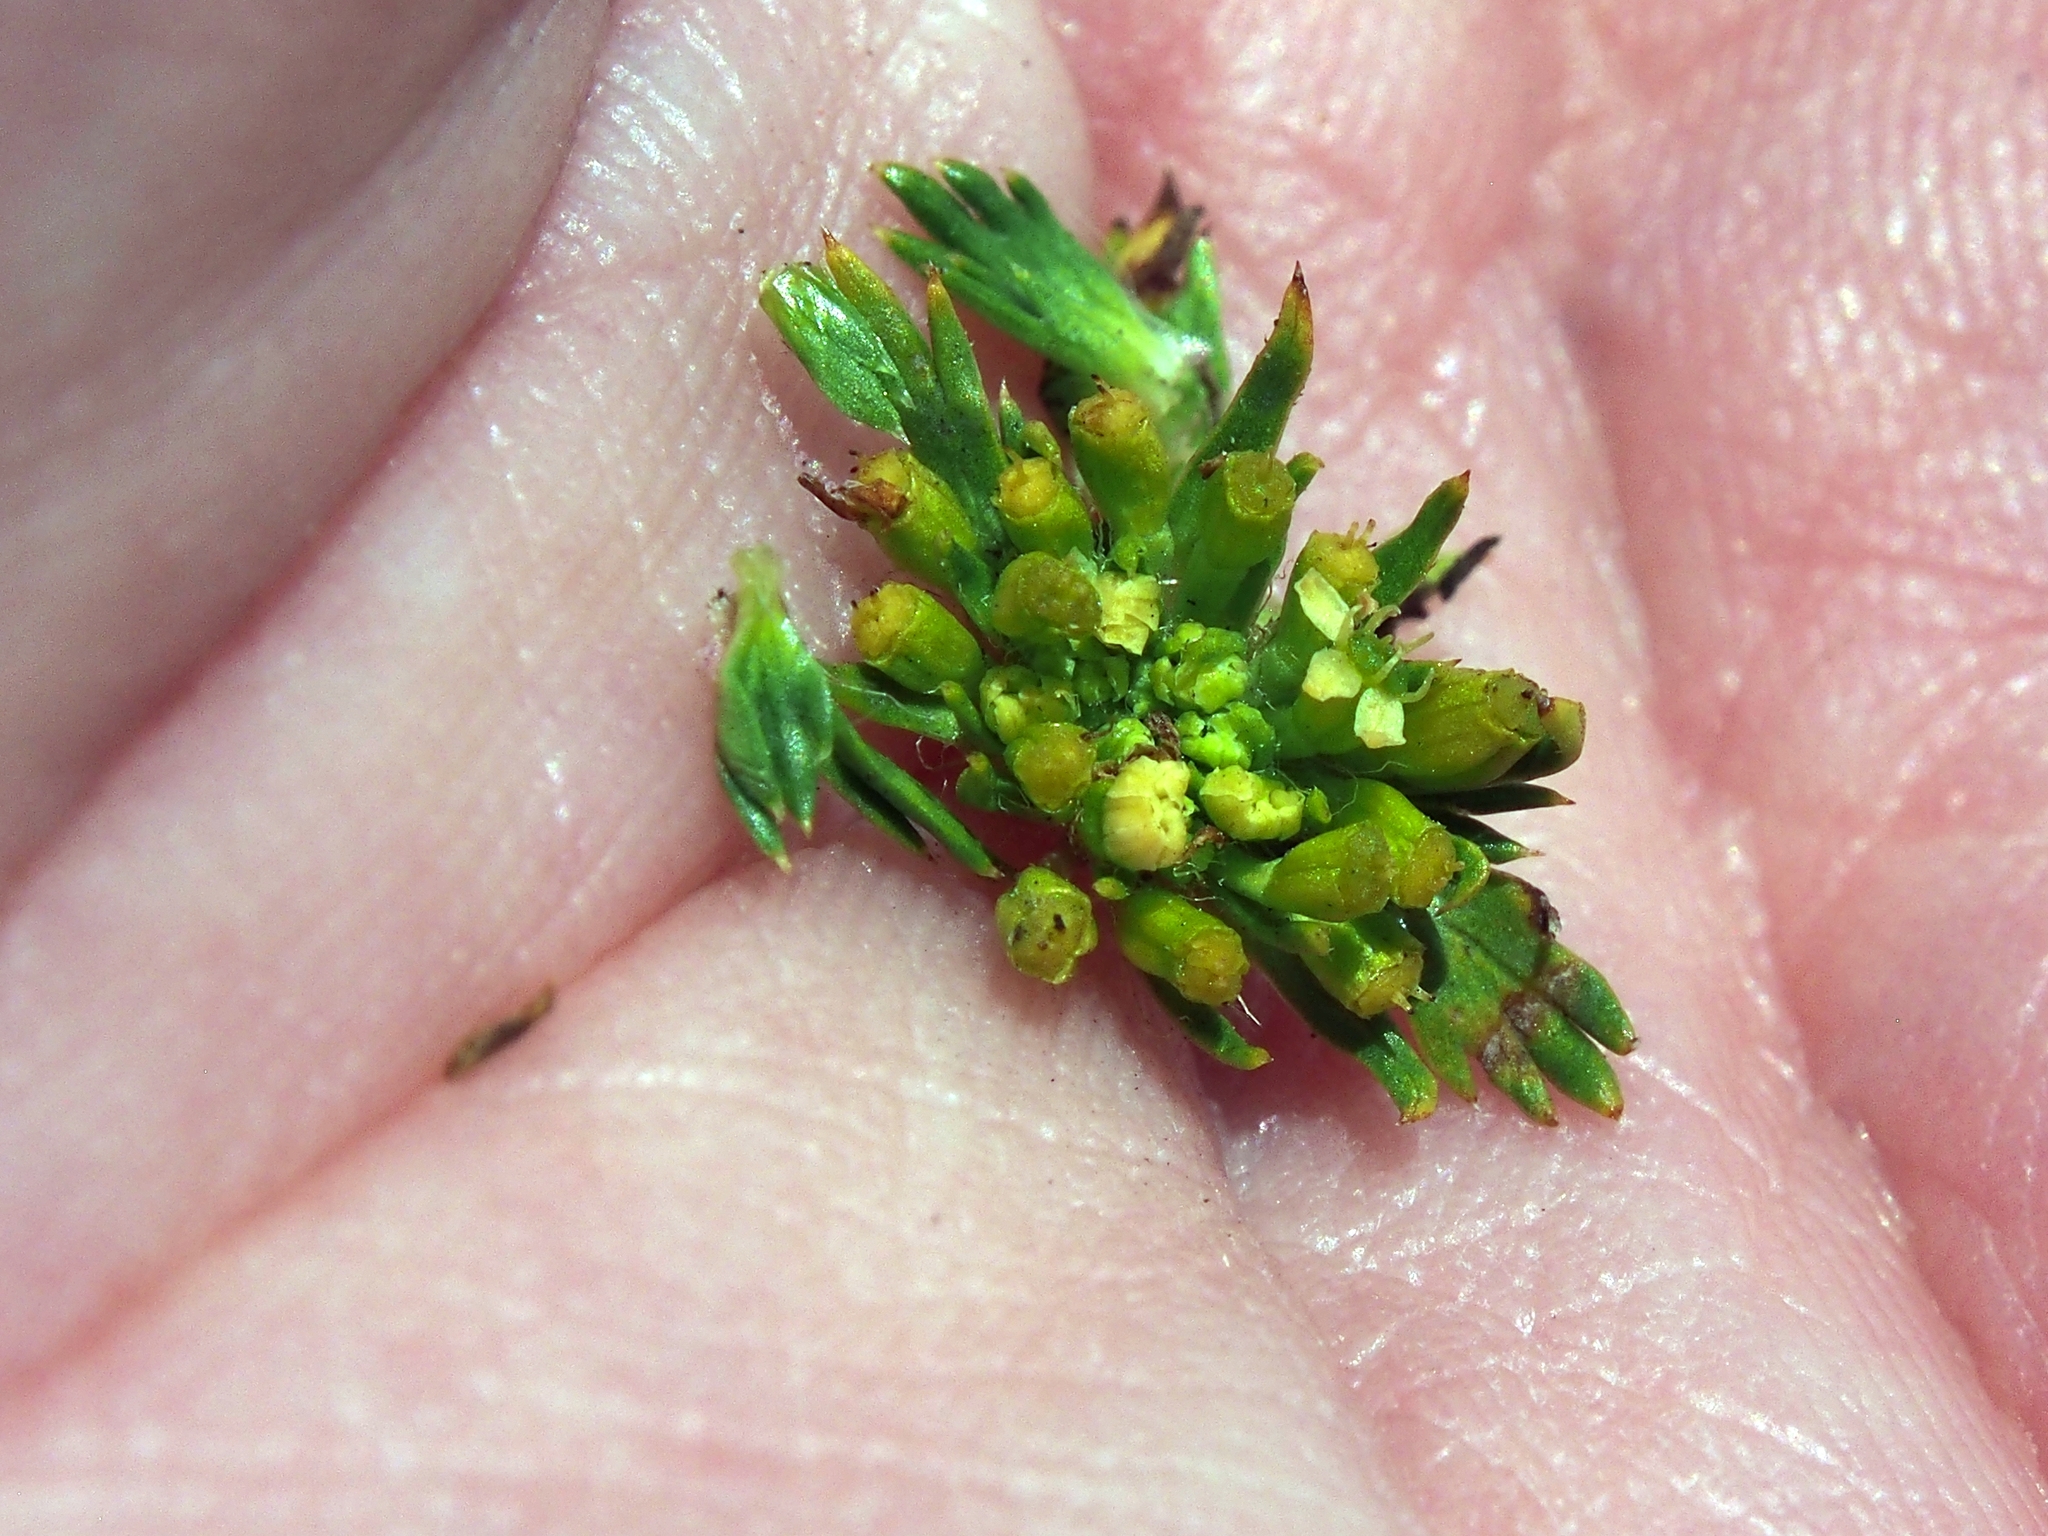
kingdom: Plantae
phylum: Tracheophyta
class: Magnoliopsida
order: Apiales
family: Apiaceae
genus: Azorella
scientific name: Azorella pedunculata
